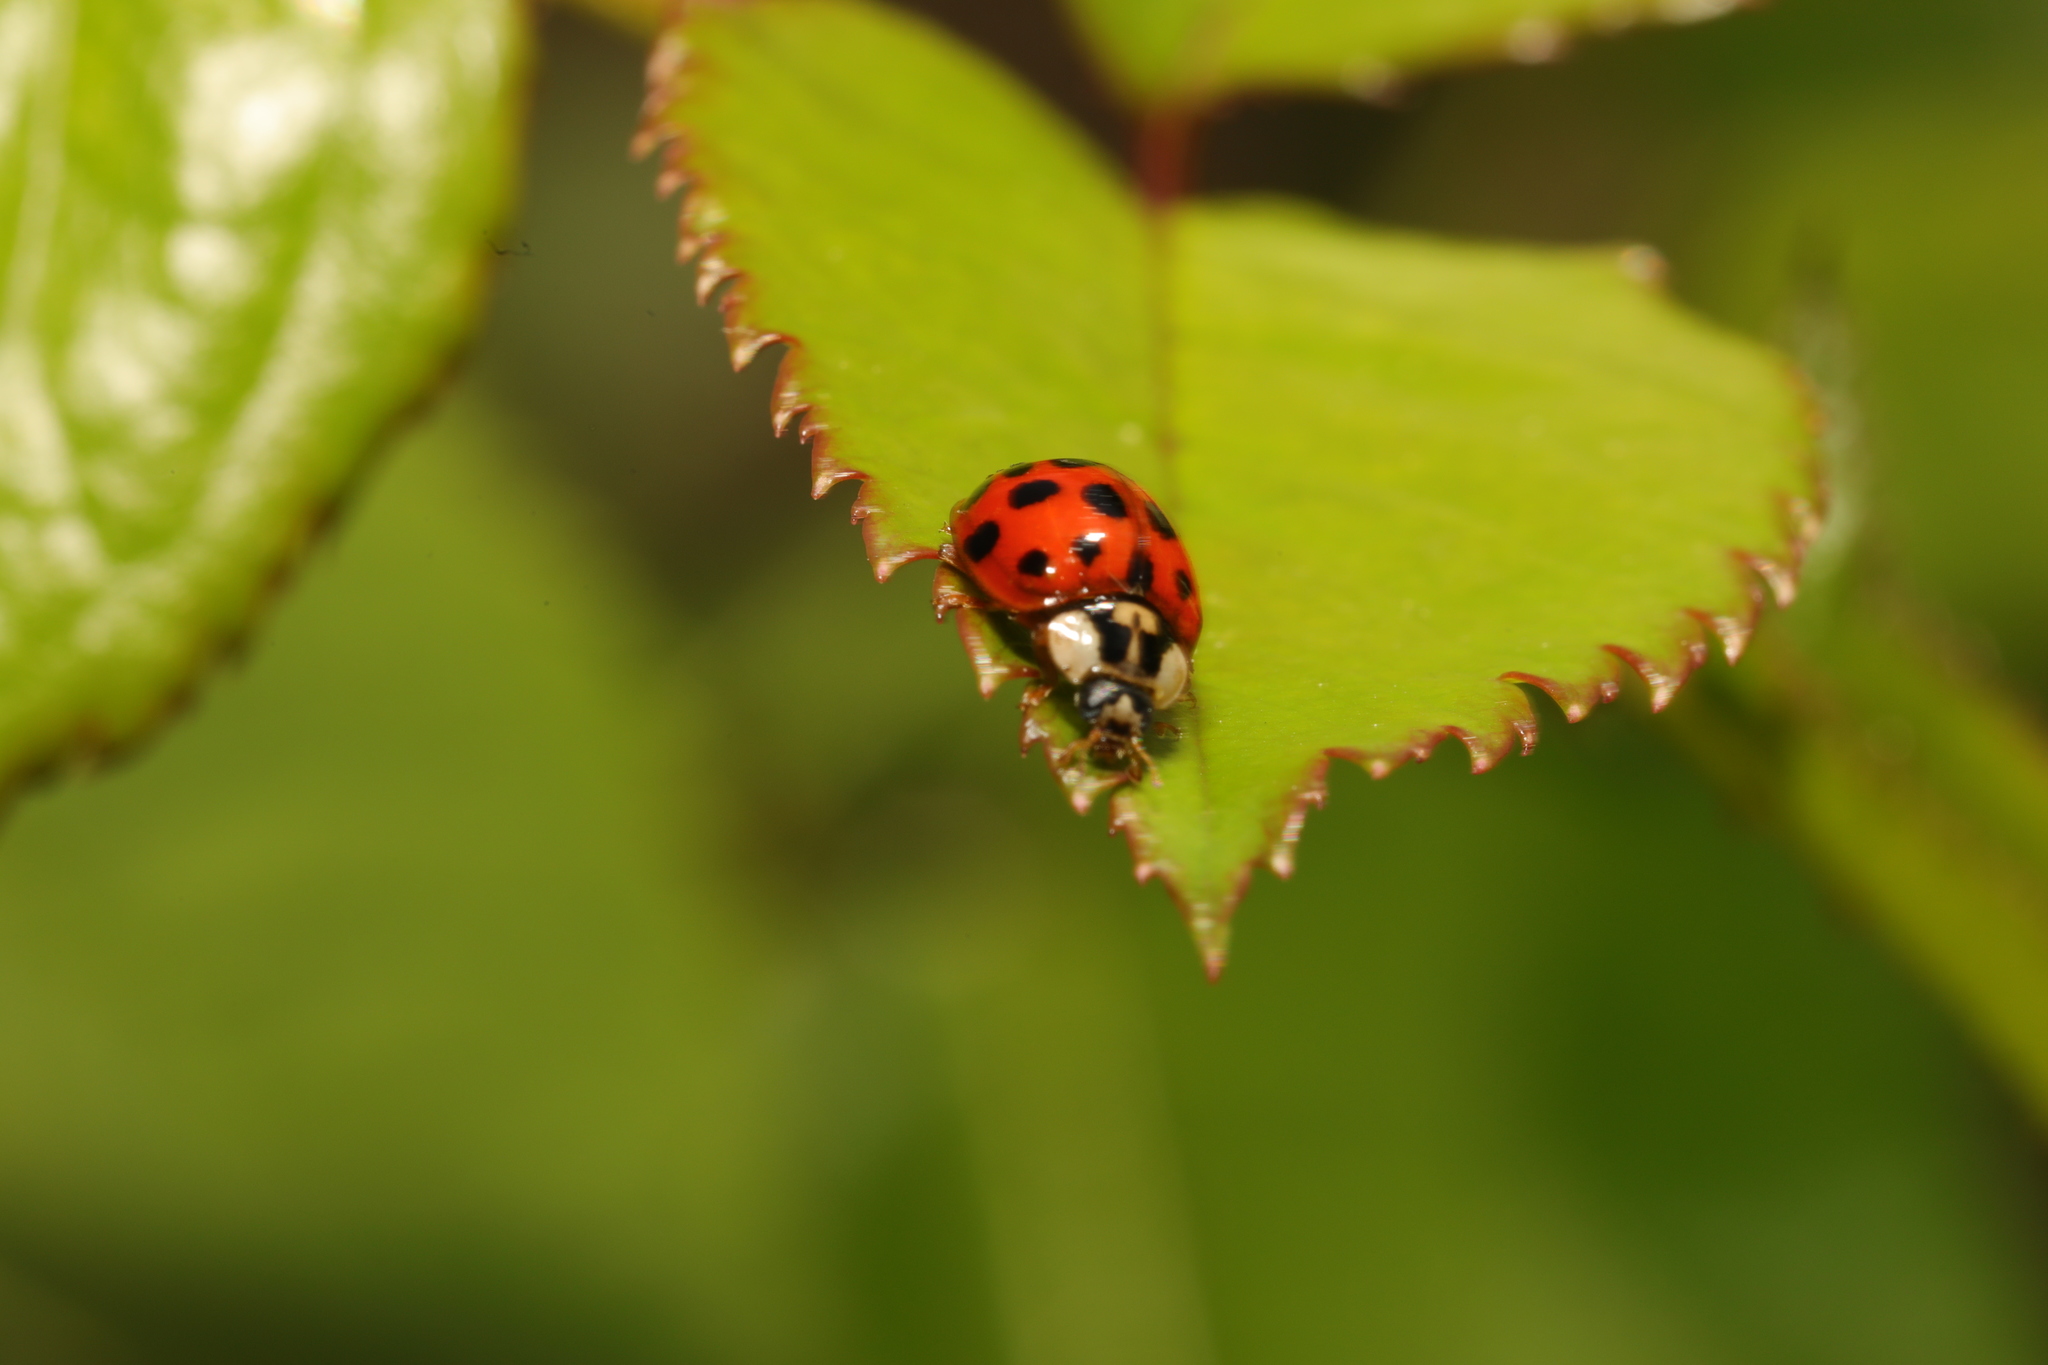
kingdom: Animalia
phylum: Arthropoda
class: Insecta
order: Coleoptera
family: Coccinellidae
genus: Harmonia
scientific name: Harmonia axyridis
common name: Harlequin ladybird
